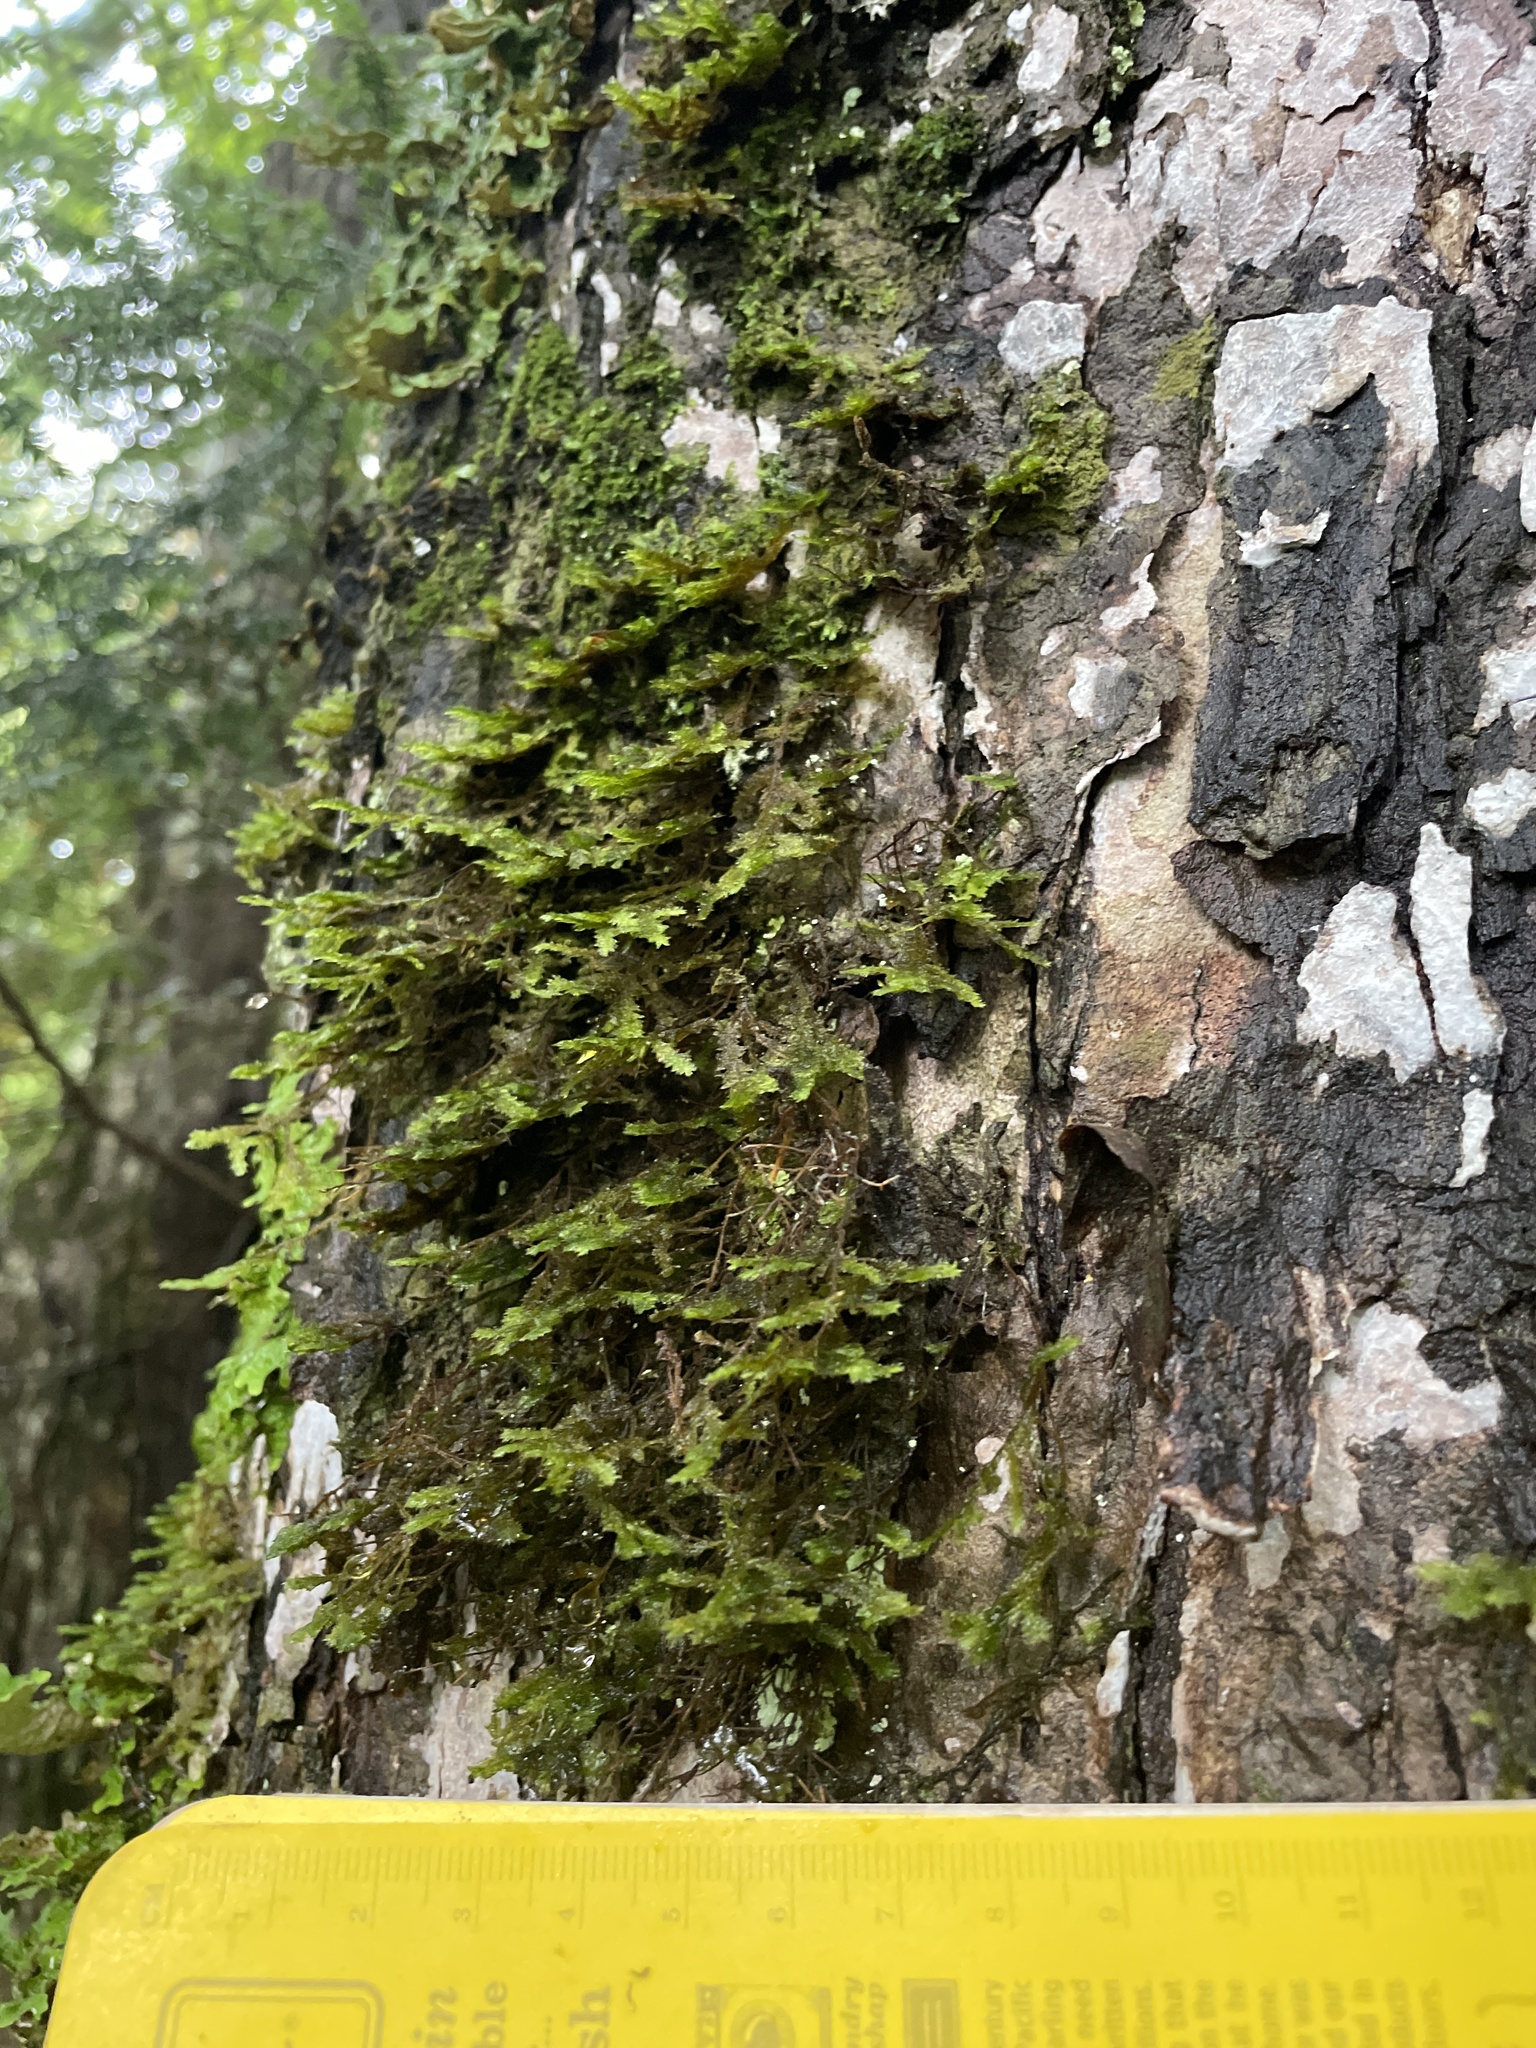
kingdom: Plantae
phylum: Bryophyta
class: Bryopsida
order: Hypnales
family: Neckeraceae
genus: Neckera
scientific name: Neckera pennata
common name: Feathery neckera
